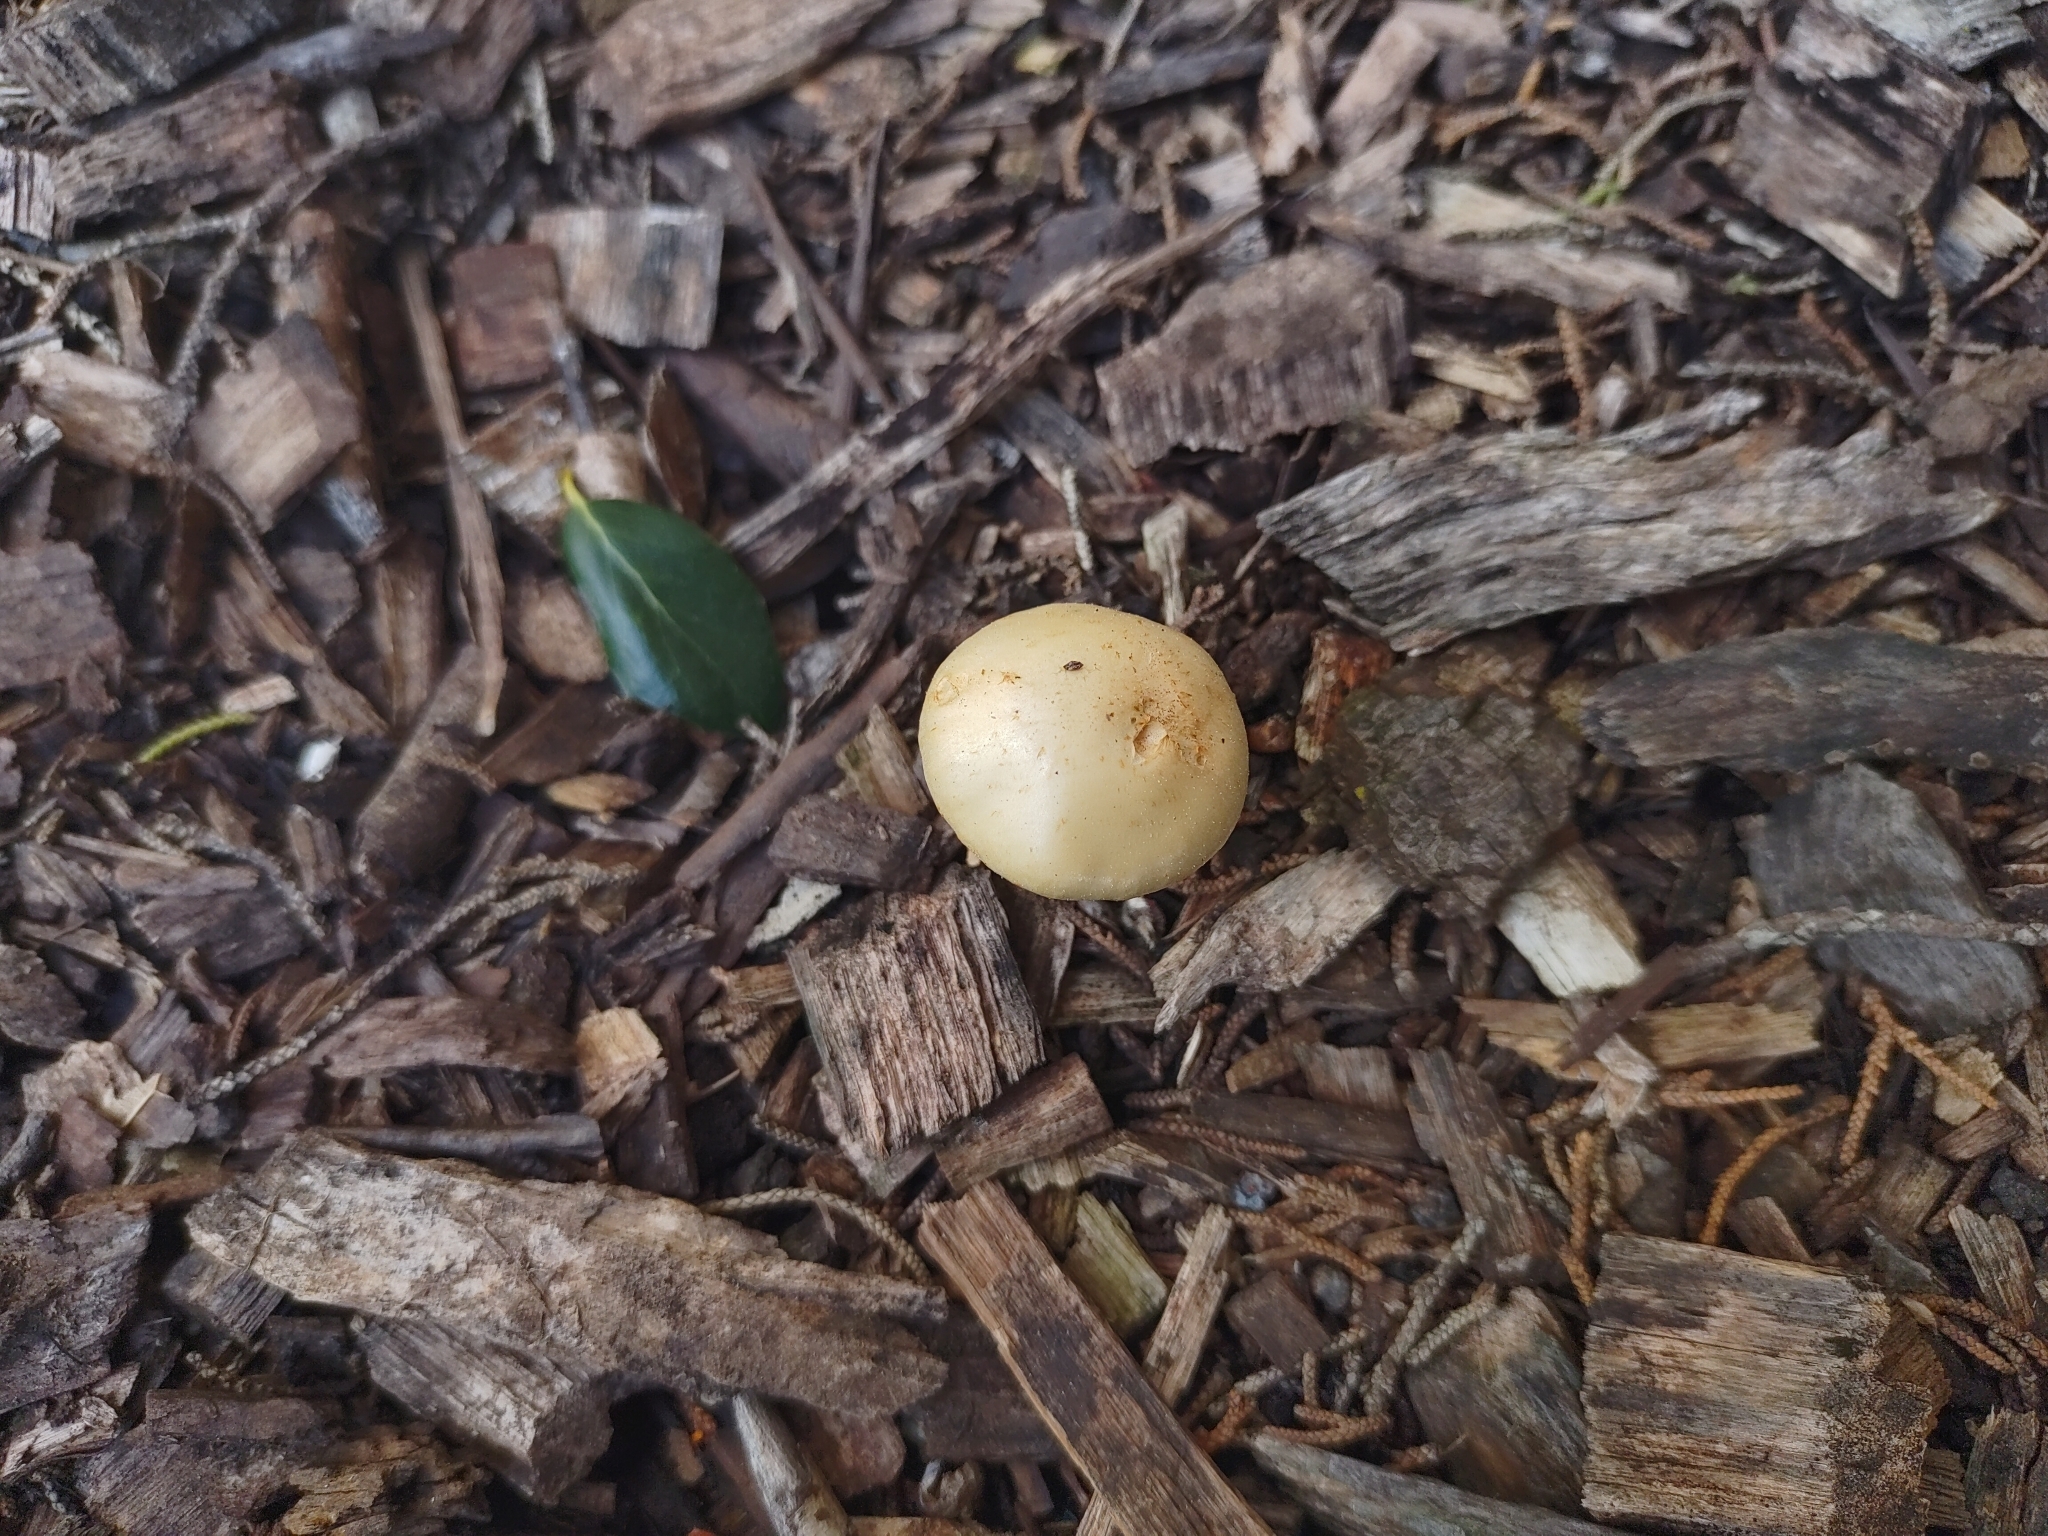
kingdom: Fungi
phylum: Basidiomycota
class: Agaricomycetes
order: Agaricales
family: Strophariaceae
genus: Leratiomyces
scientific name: Leratiomyces percevalii
